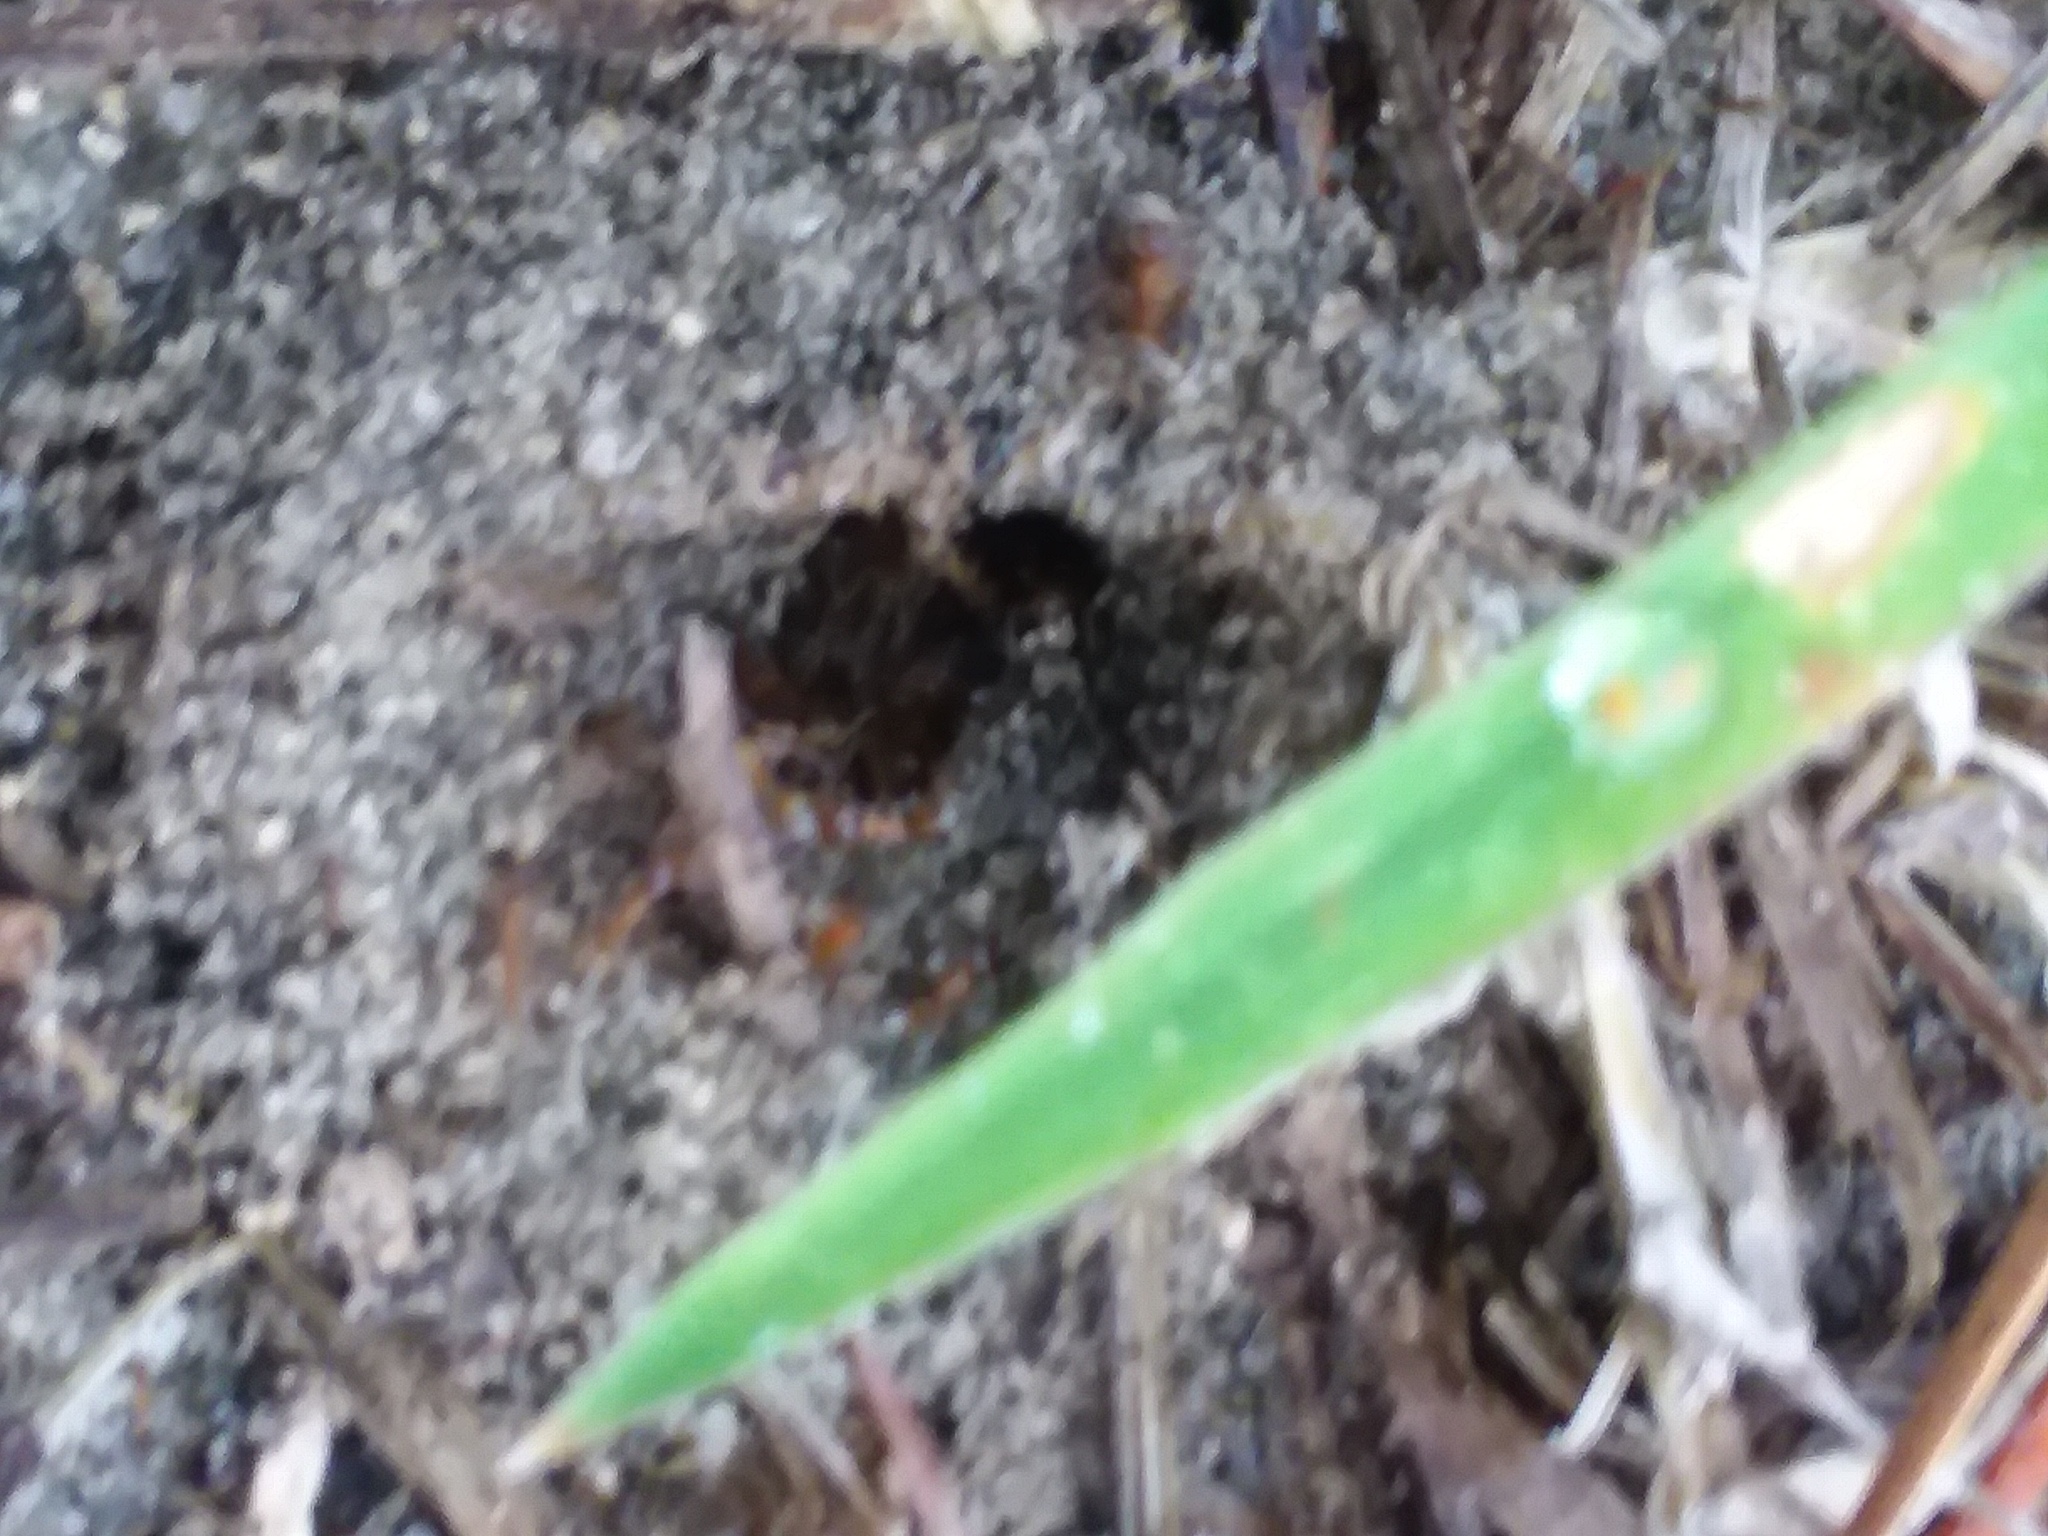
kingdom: Animalia
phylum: Arthropoda
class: Insecta
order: Hymenoptera
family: Formicidae
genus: Dorymyrmex
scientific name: Dorymyrmex bureni
